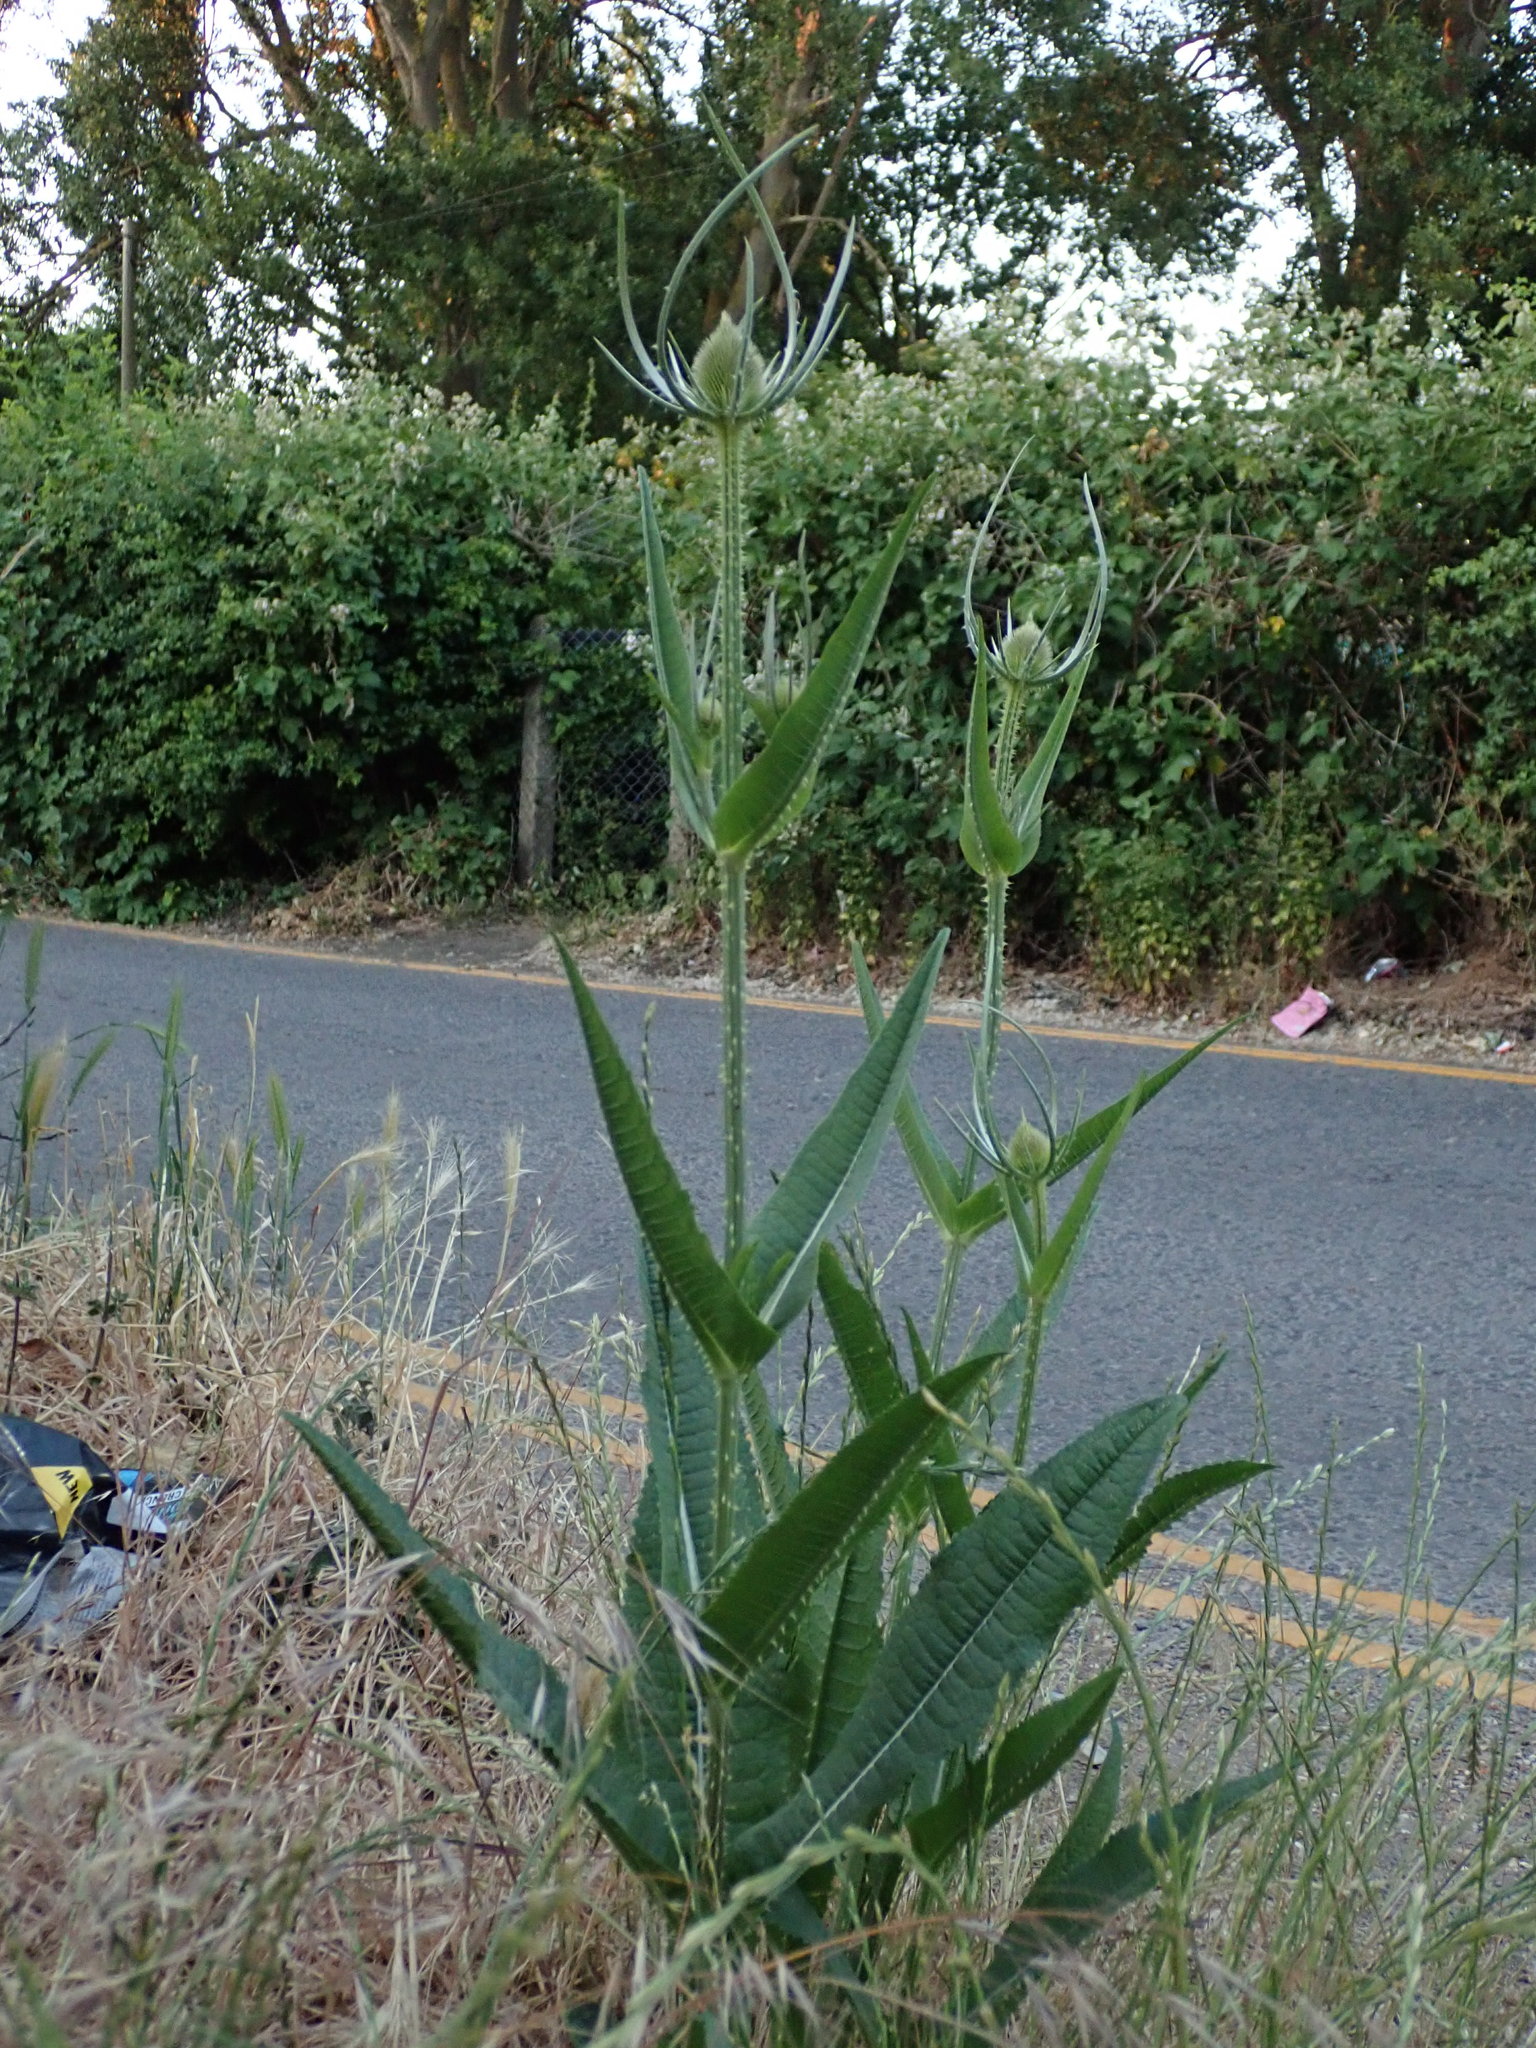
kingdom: Plantae
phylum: Tracheophyta
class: Magnoliopsida
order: Dipsacales
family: Caprifoliaceae
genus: Dipsacus
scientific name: Dipsacus fullonum
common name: Teasel
